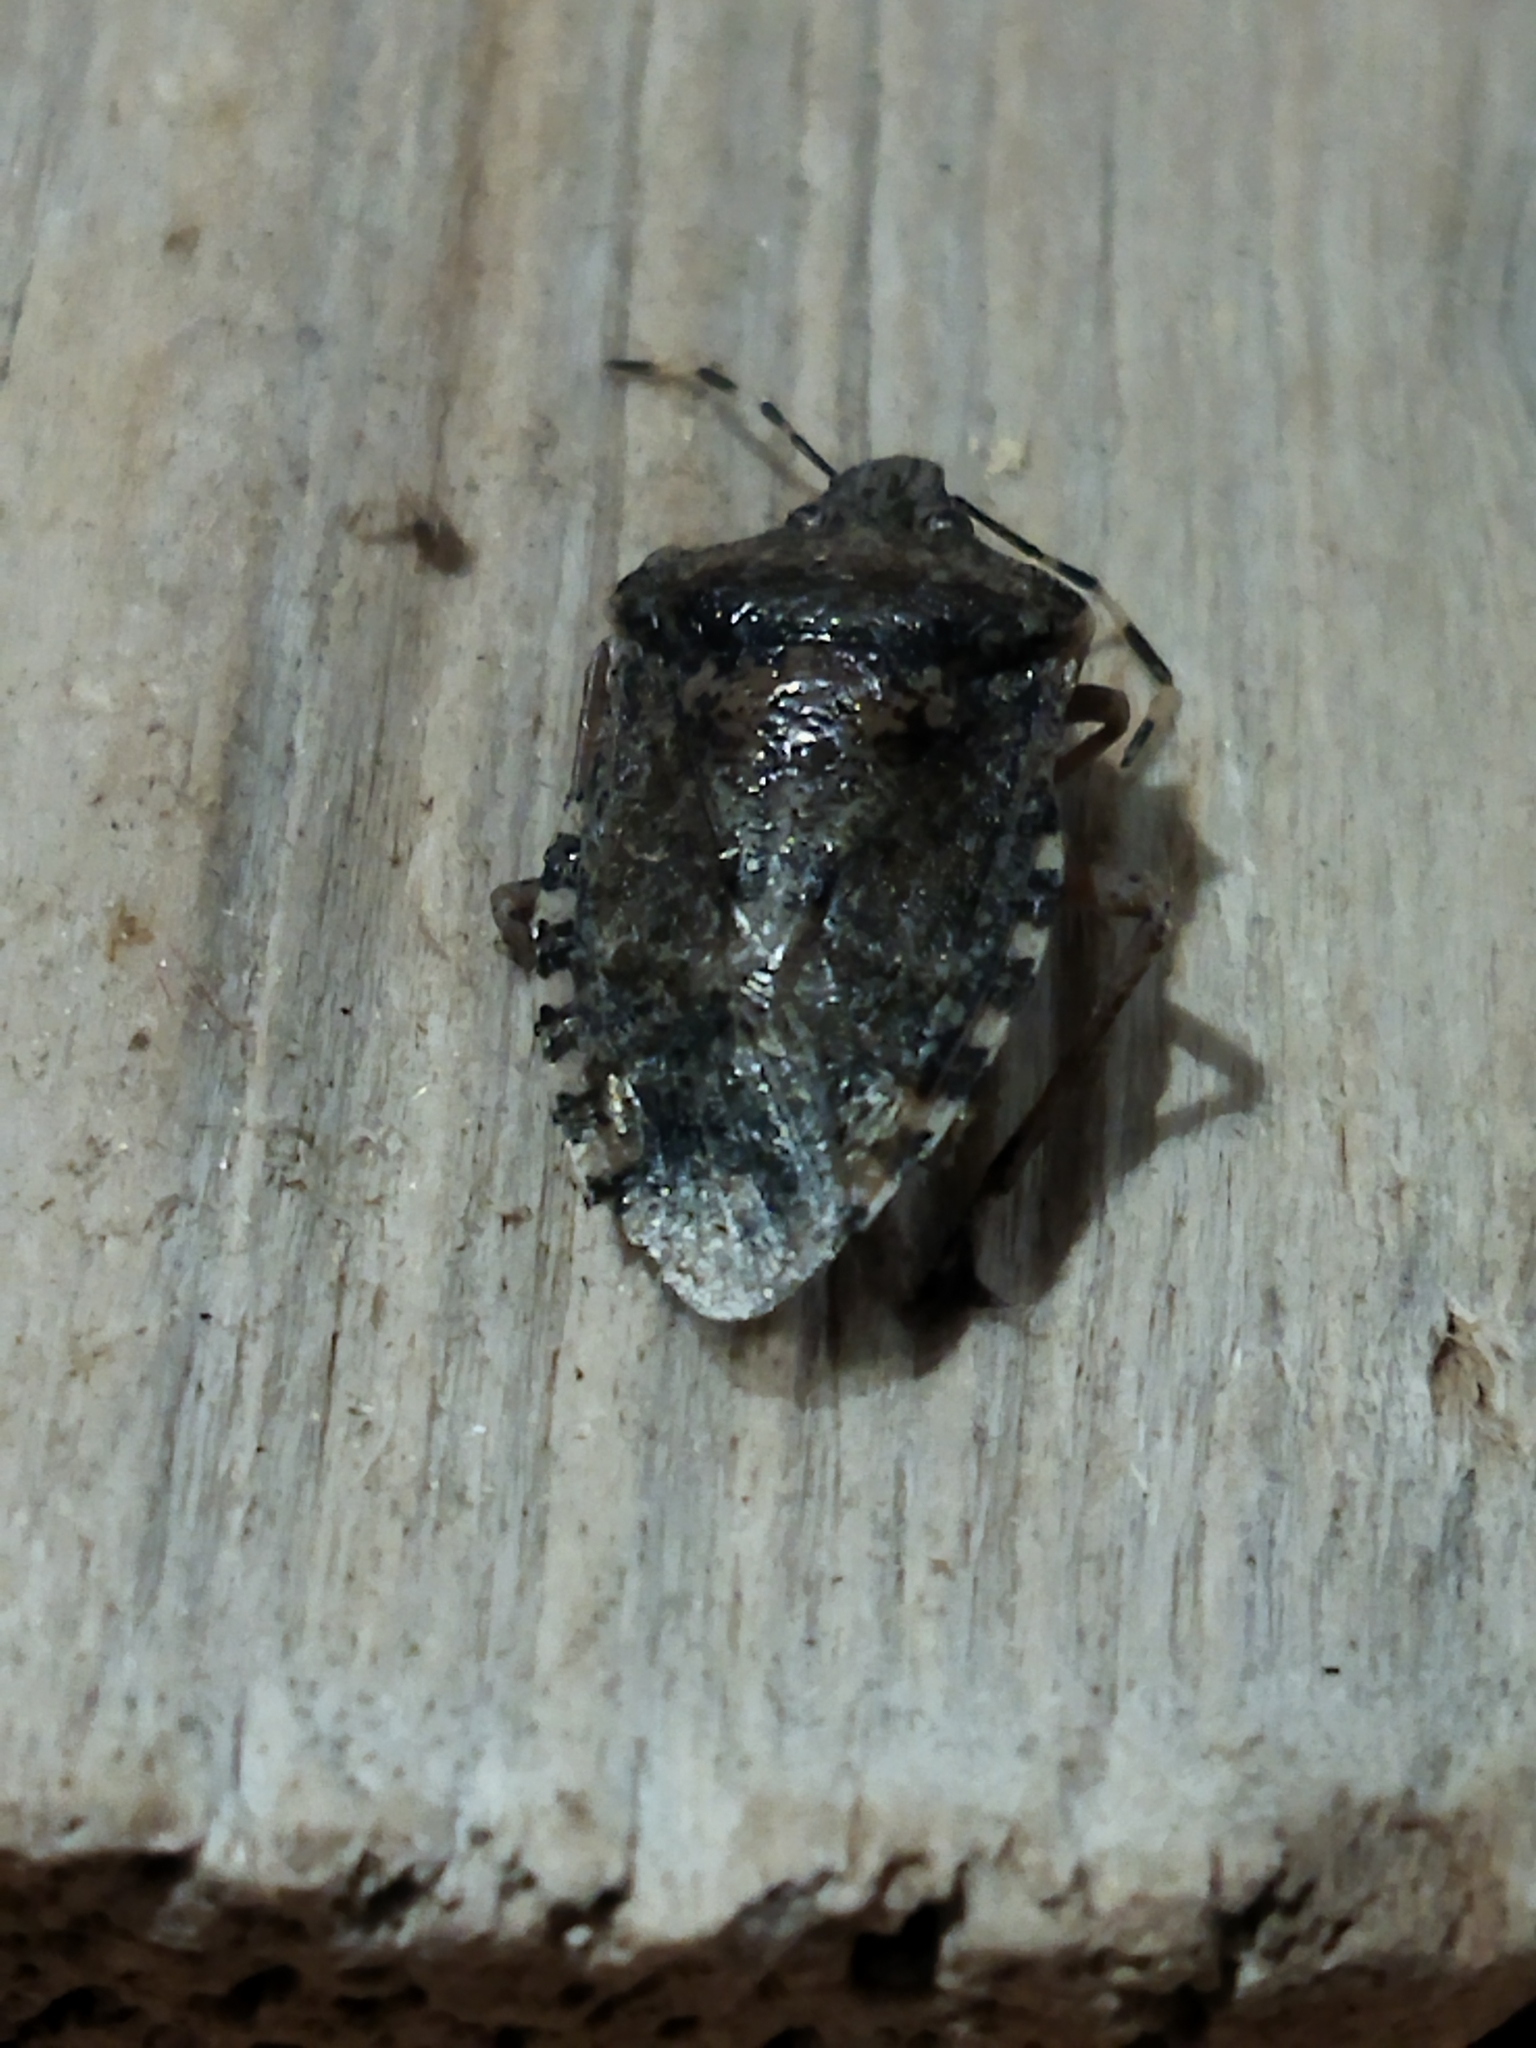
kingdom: Animalia
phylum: Arthropoda
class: Insecta
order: Hemiptera
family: Pentatomidae
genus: Rhaphigaster
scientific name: Rhaphigaster nebulosa
